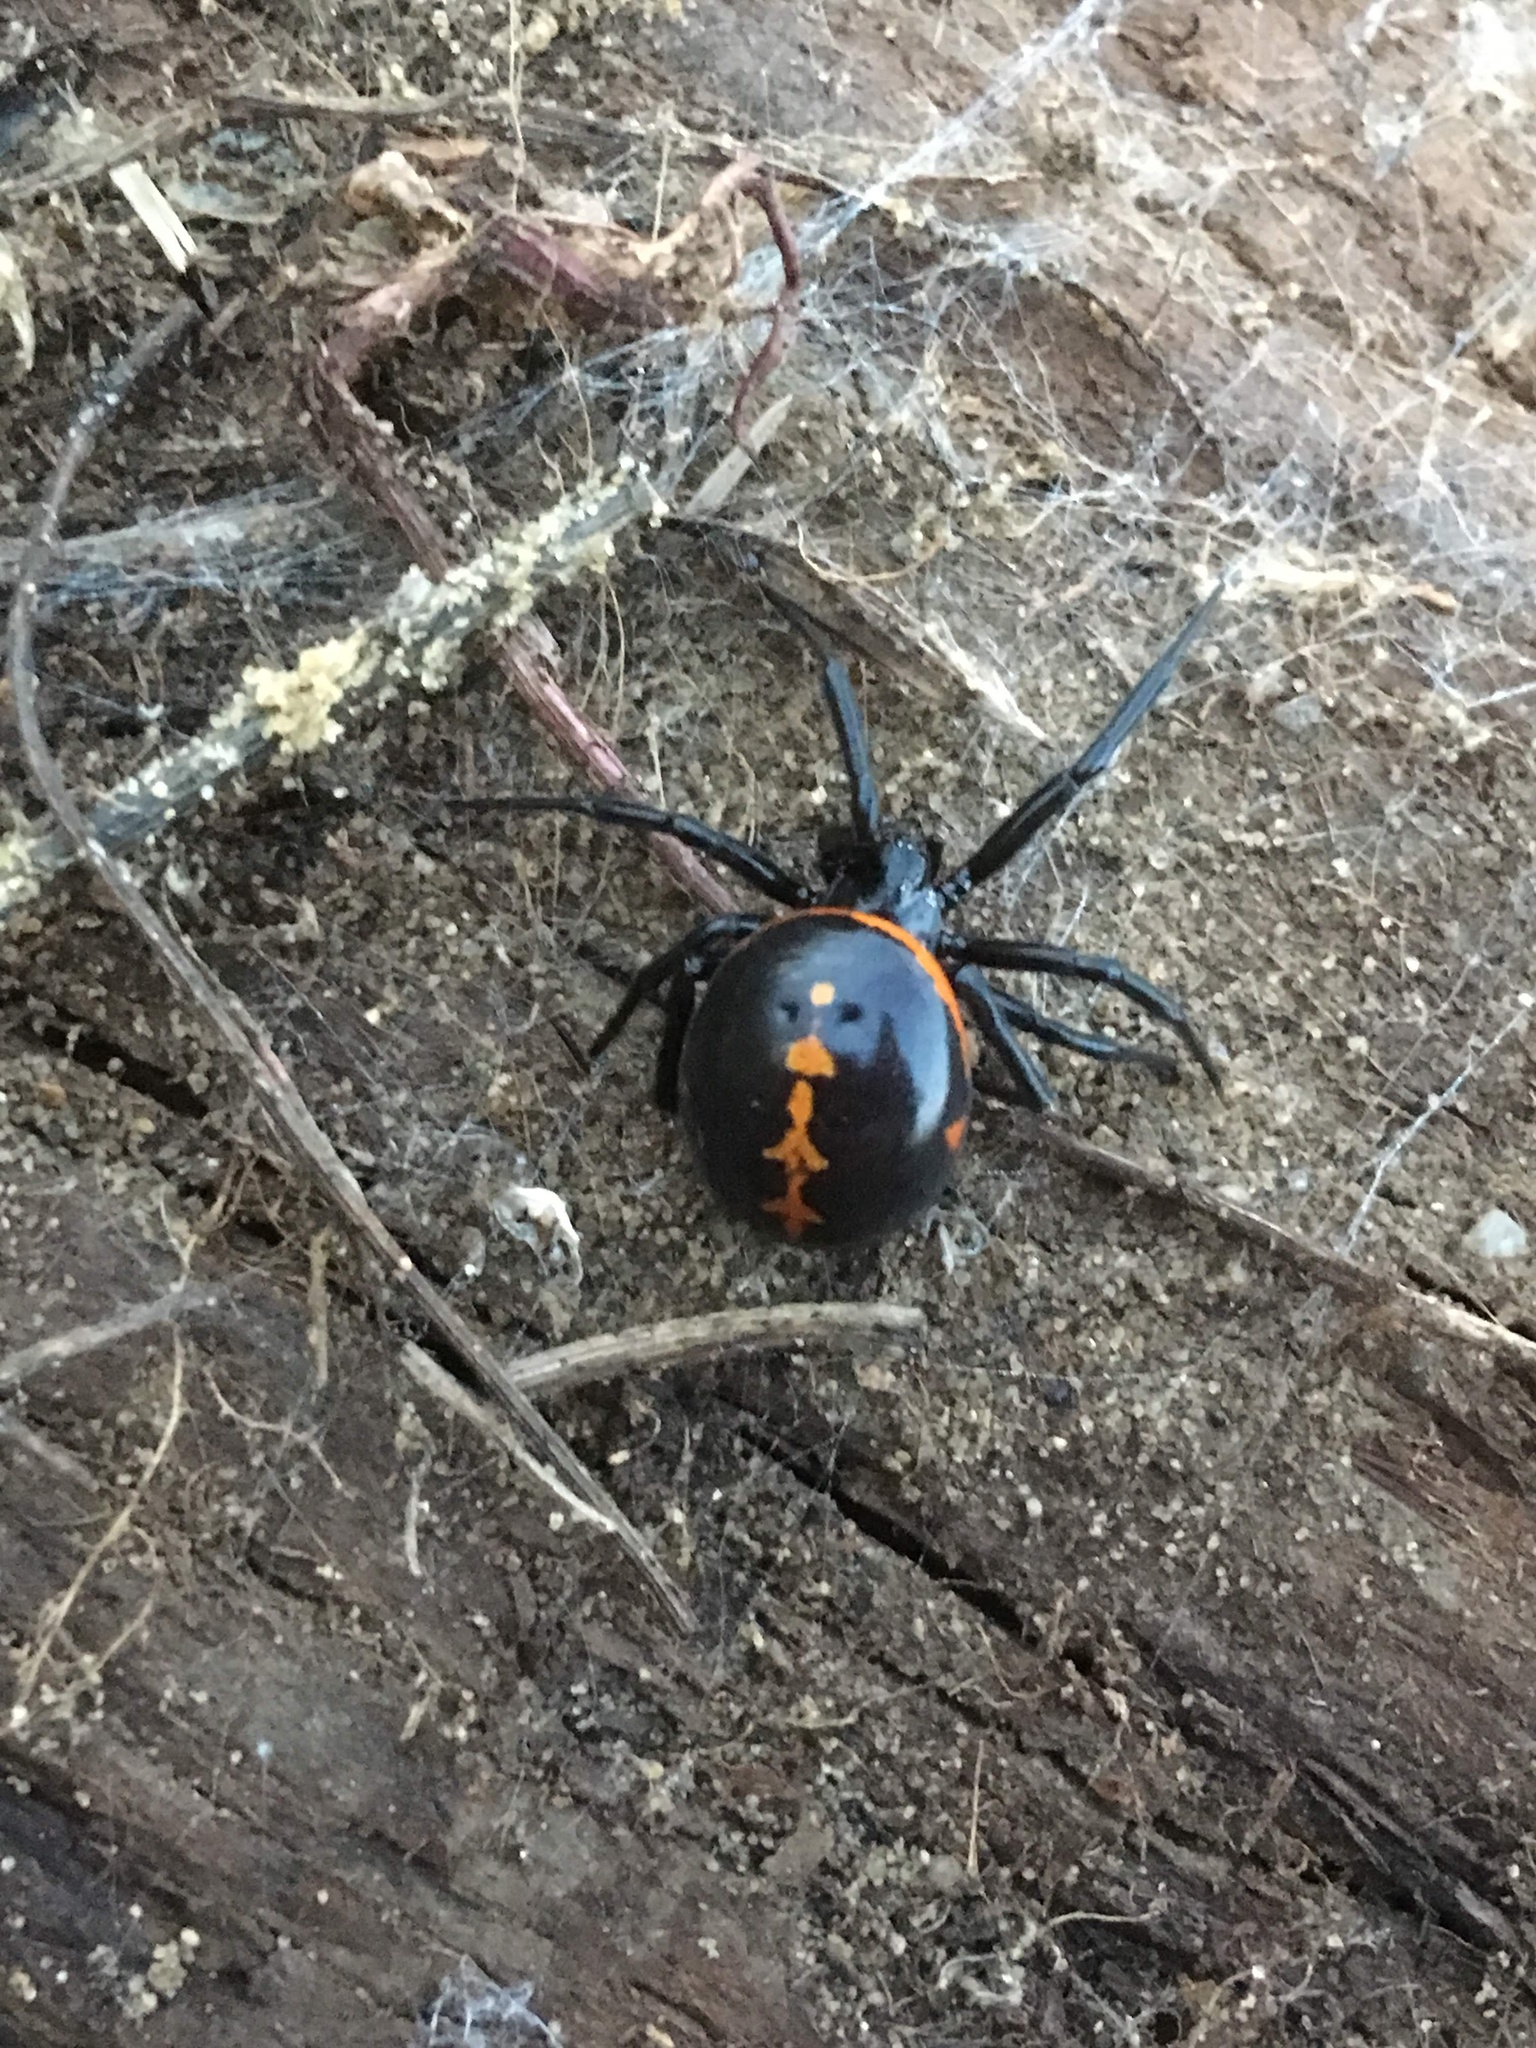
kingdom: Animalia
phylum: Arthropoda
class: Arachnida
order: Araneae
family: Theridiidae
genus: Steatoda
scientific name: Steatoda paykulliana
